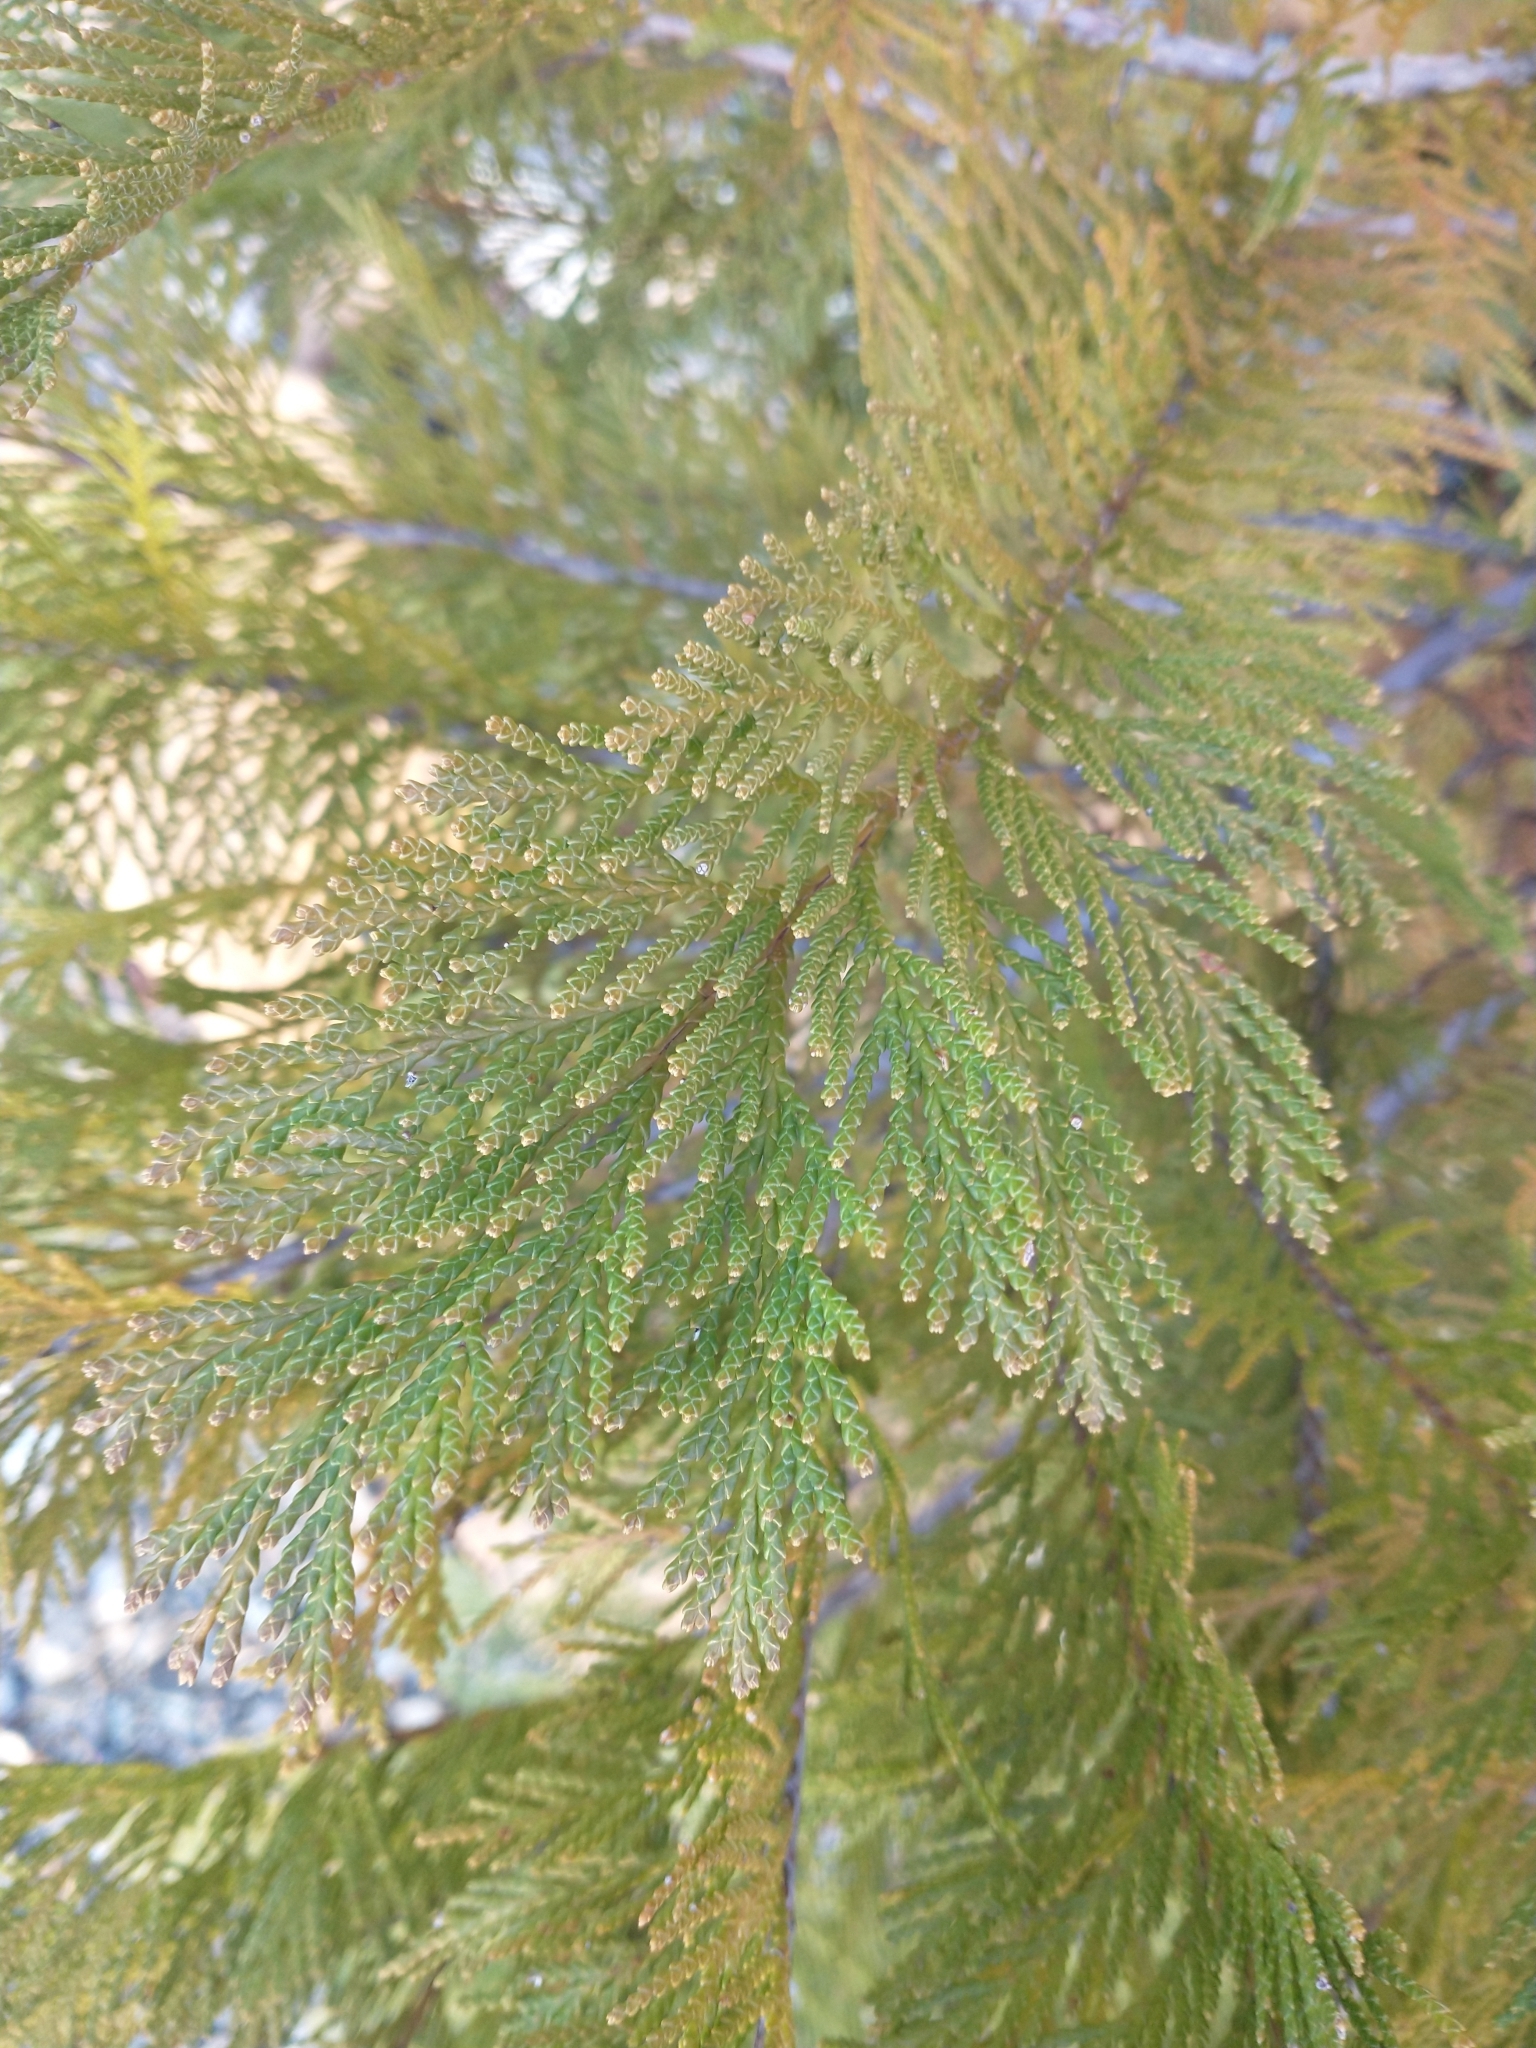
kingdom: Plantae
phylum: Tracheophyta
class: Pinopsida
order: Pinales
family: Cupressaceae
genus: Chamaecyparis
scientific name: Chamaecyparis lawsoniana
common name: Lawson's cypress
